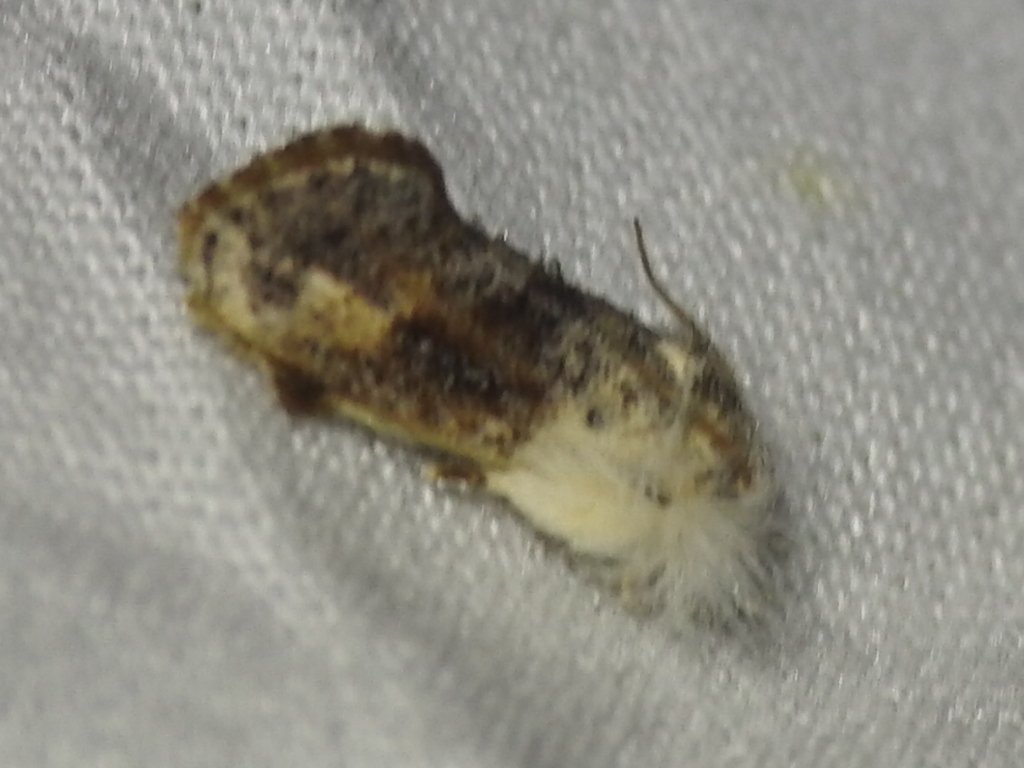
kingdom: Animalia
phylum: Arthropoda
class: Insecta
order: Lepidoptera
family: Tineidae
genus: Acrolophus
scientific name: Acrolophus mycetophagus
